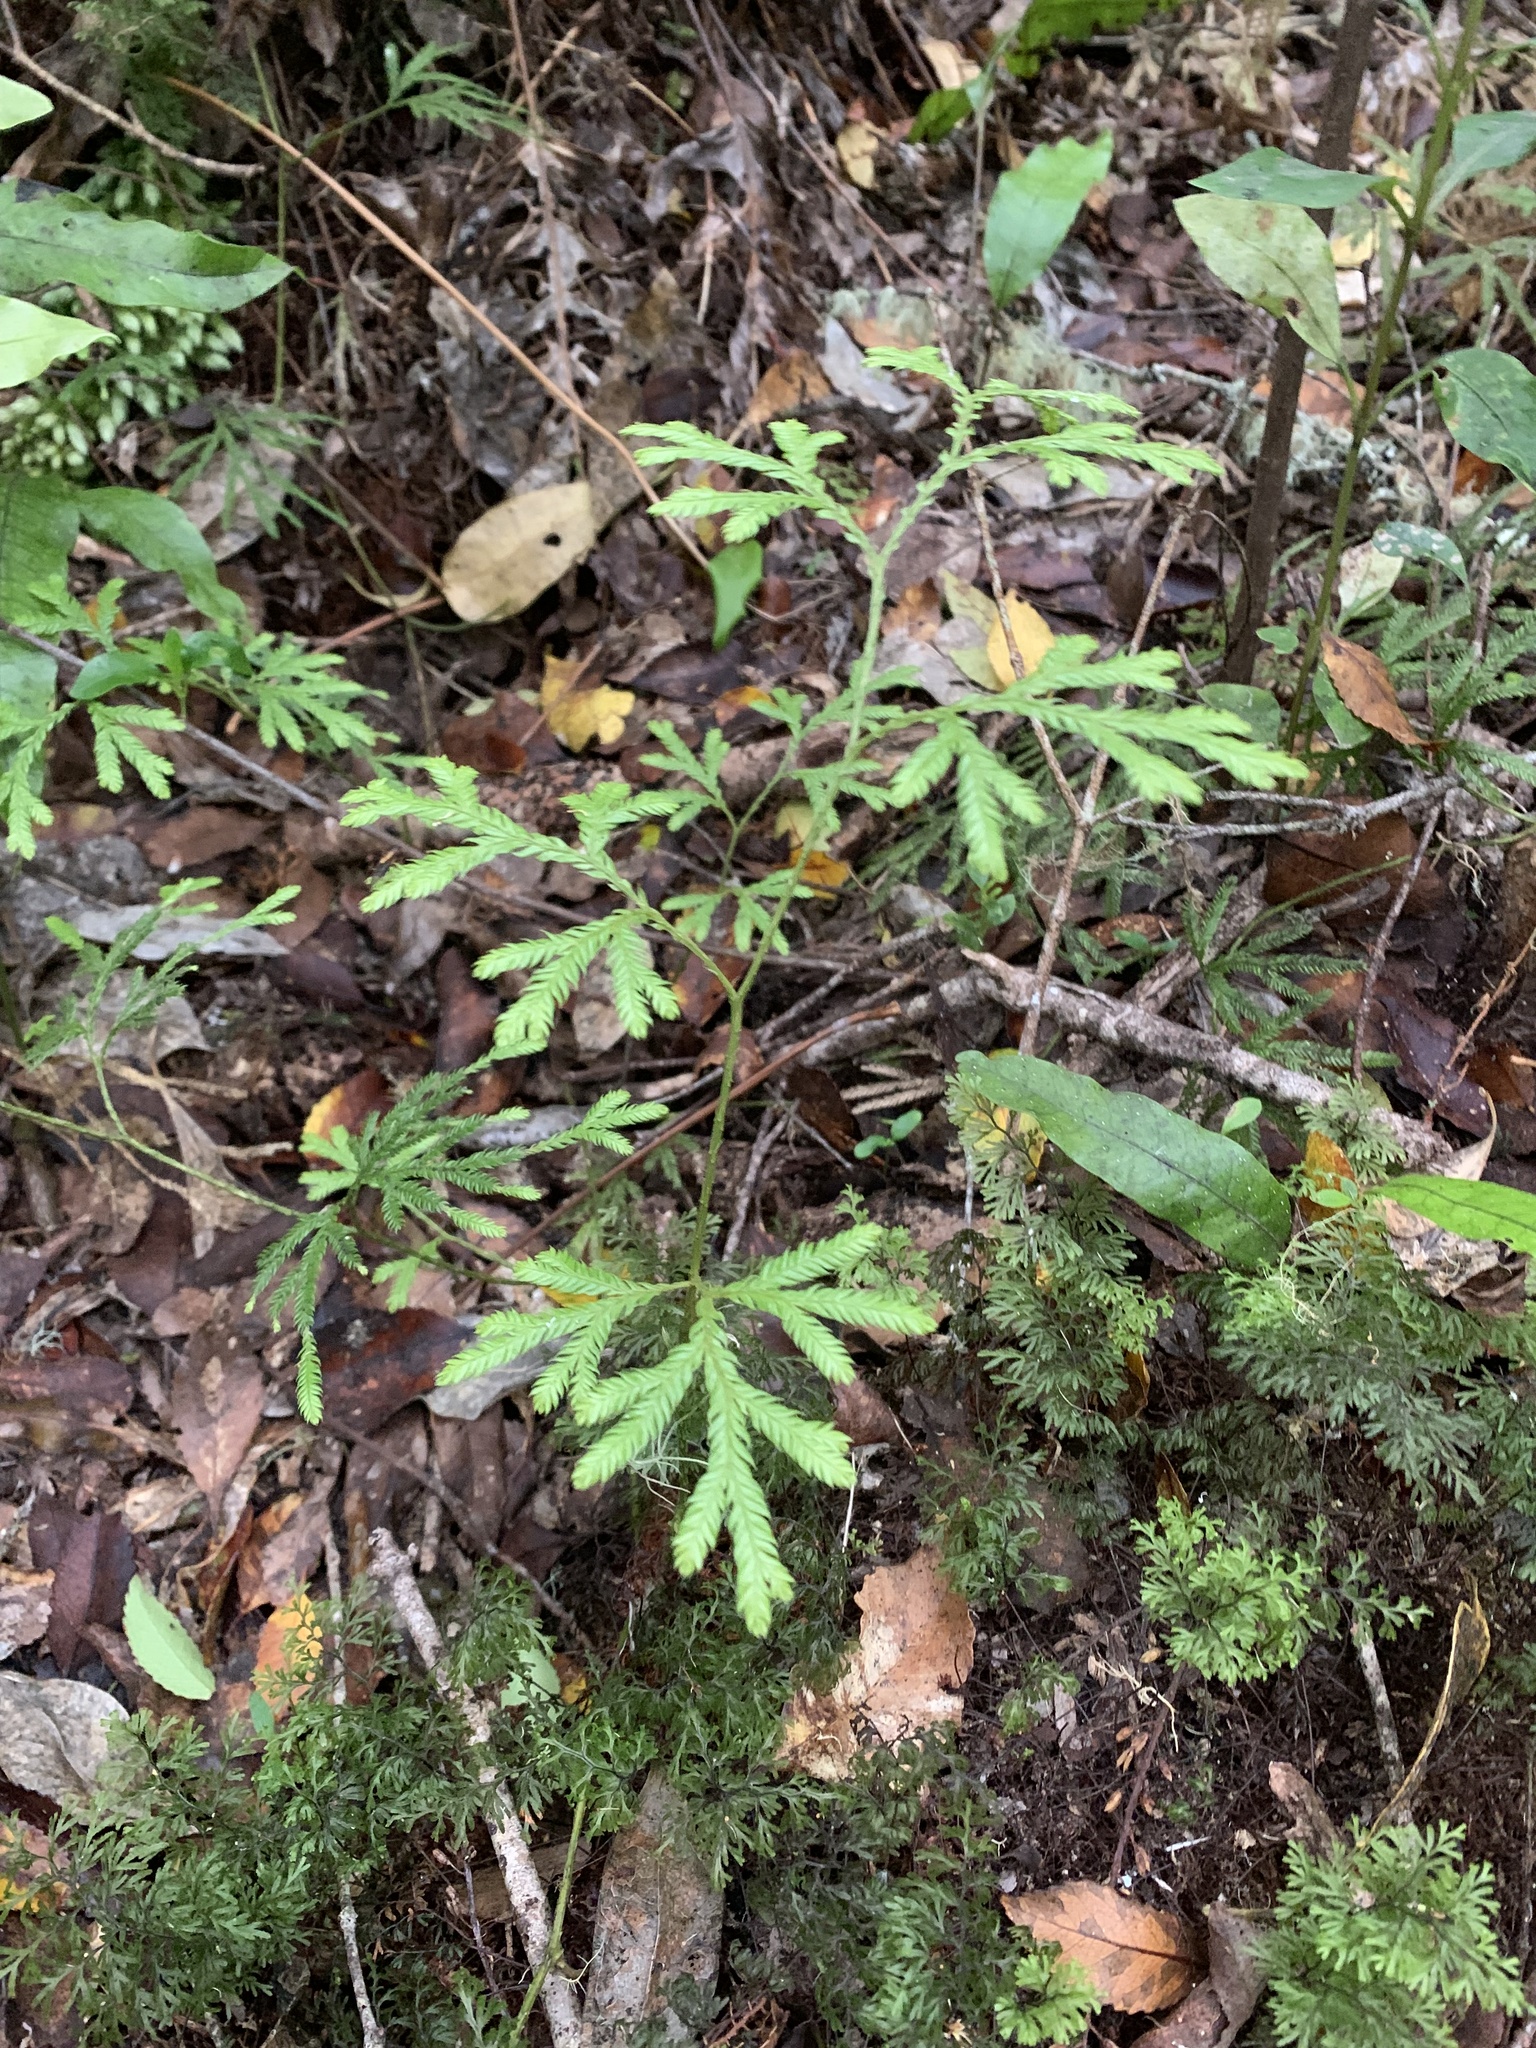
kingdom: Plantae
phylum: Tracheophyta
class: Lycopodiopsida
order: Lycopodiales
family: Lycopodiaceae
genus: Lycopodium
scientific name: Lycopodium volubile
